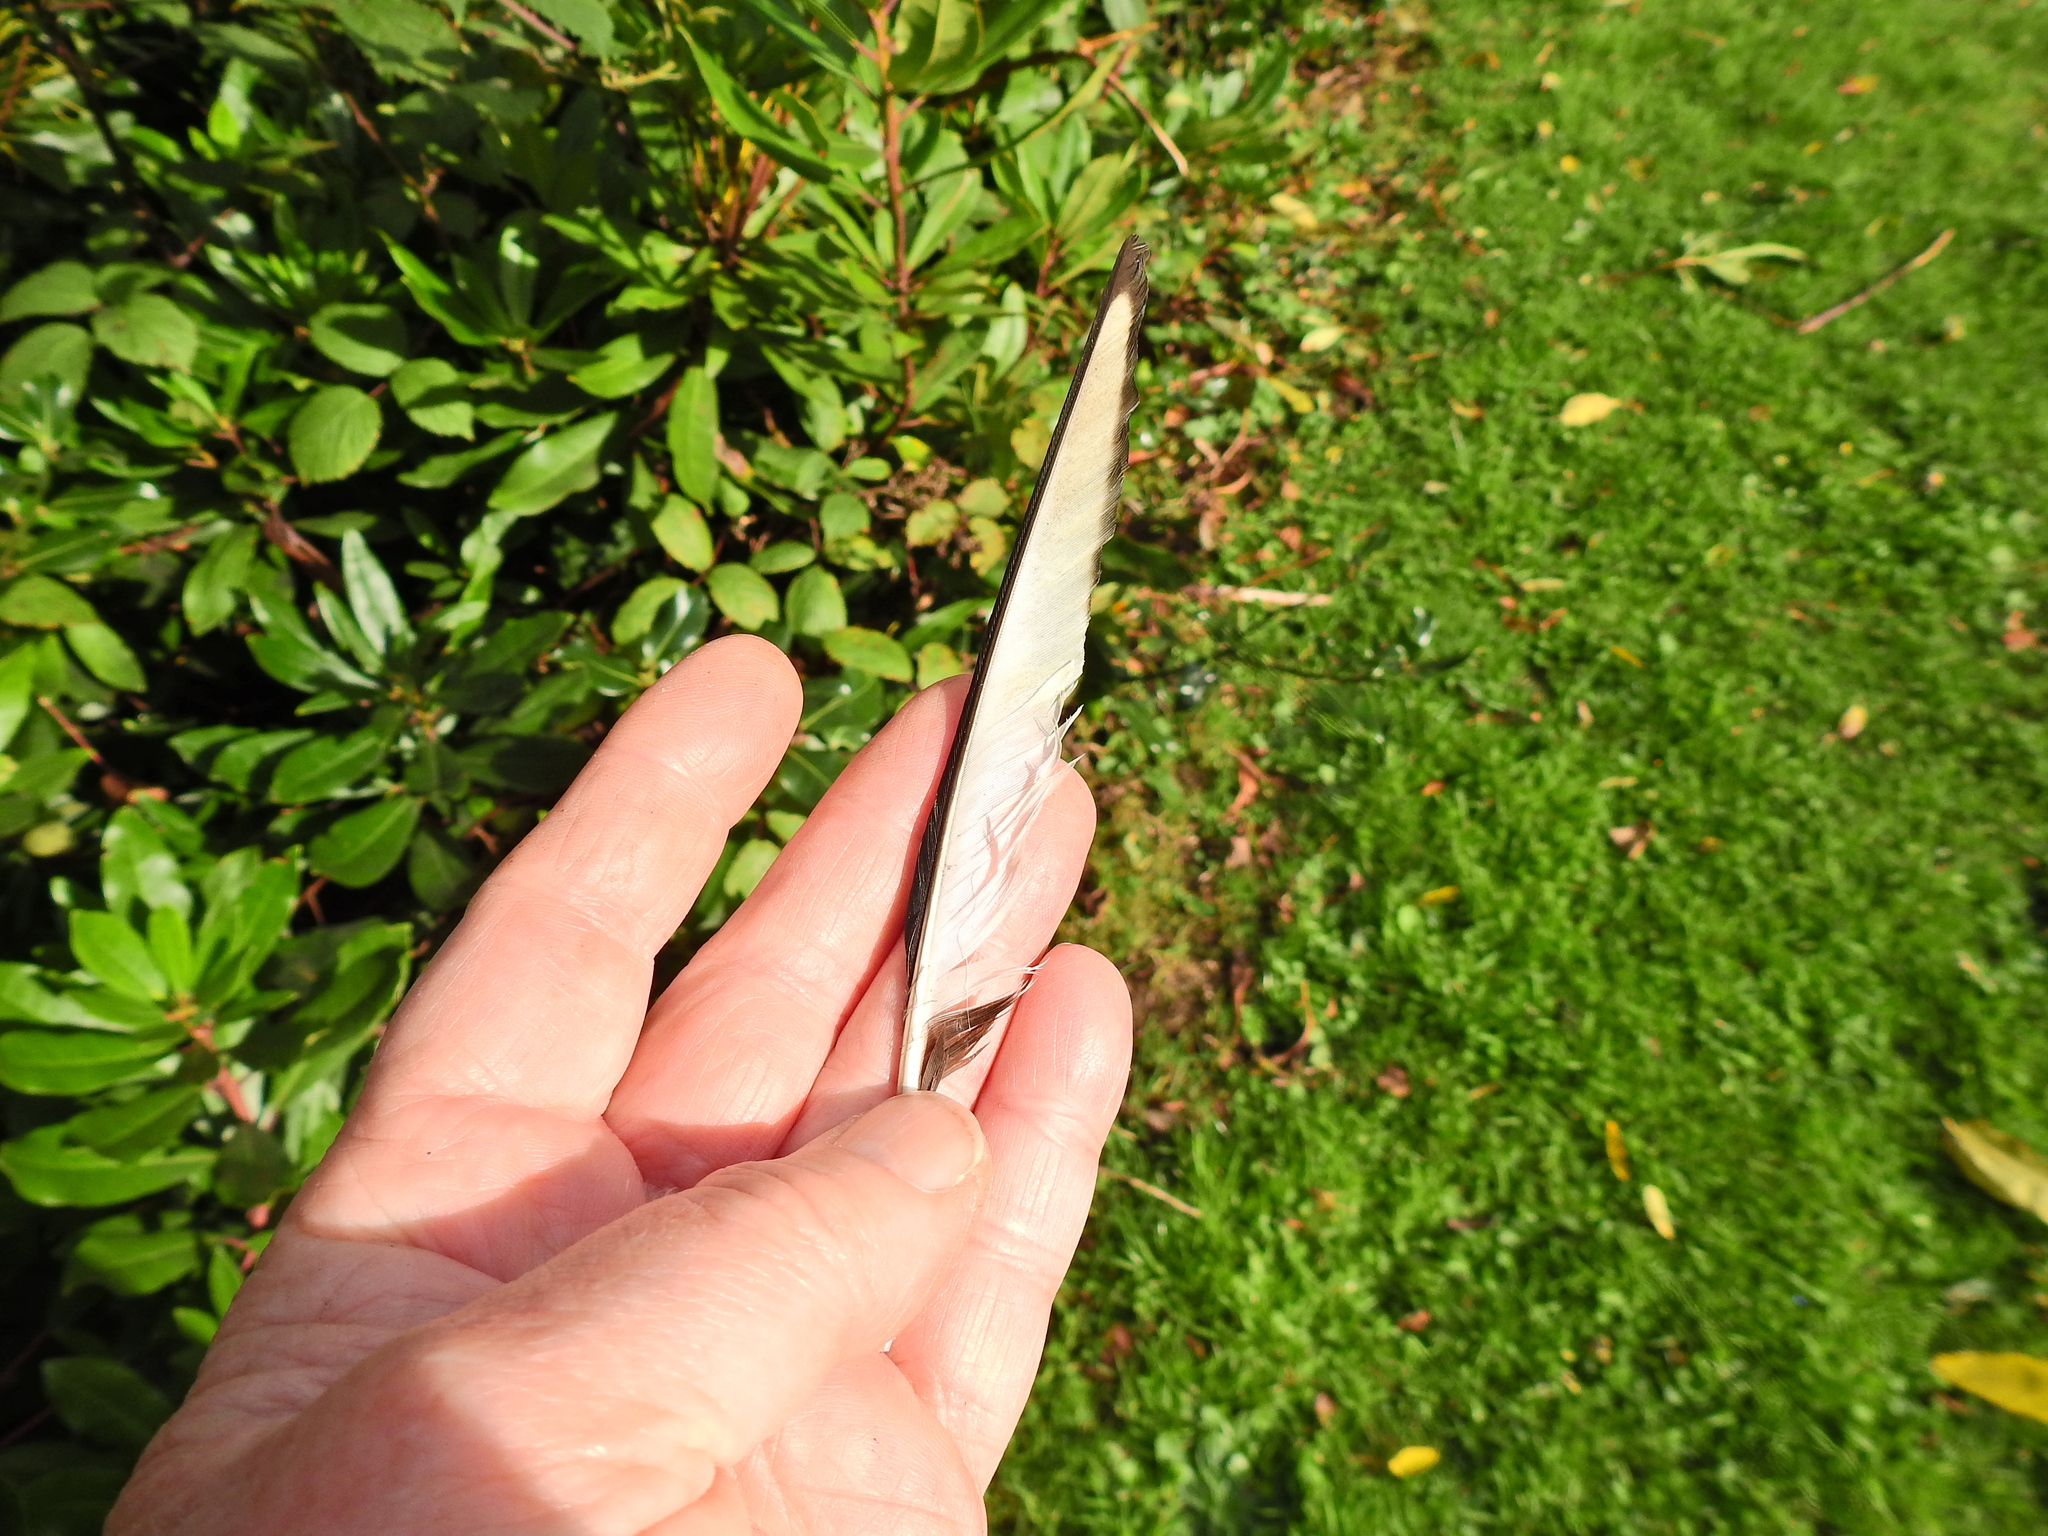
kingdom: Animalia
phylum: Chordata
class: Aves
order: Passeriformes
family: Corvidae
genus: Pica
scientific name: Pica pica
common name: Eurasian magpie
